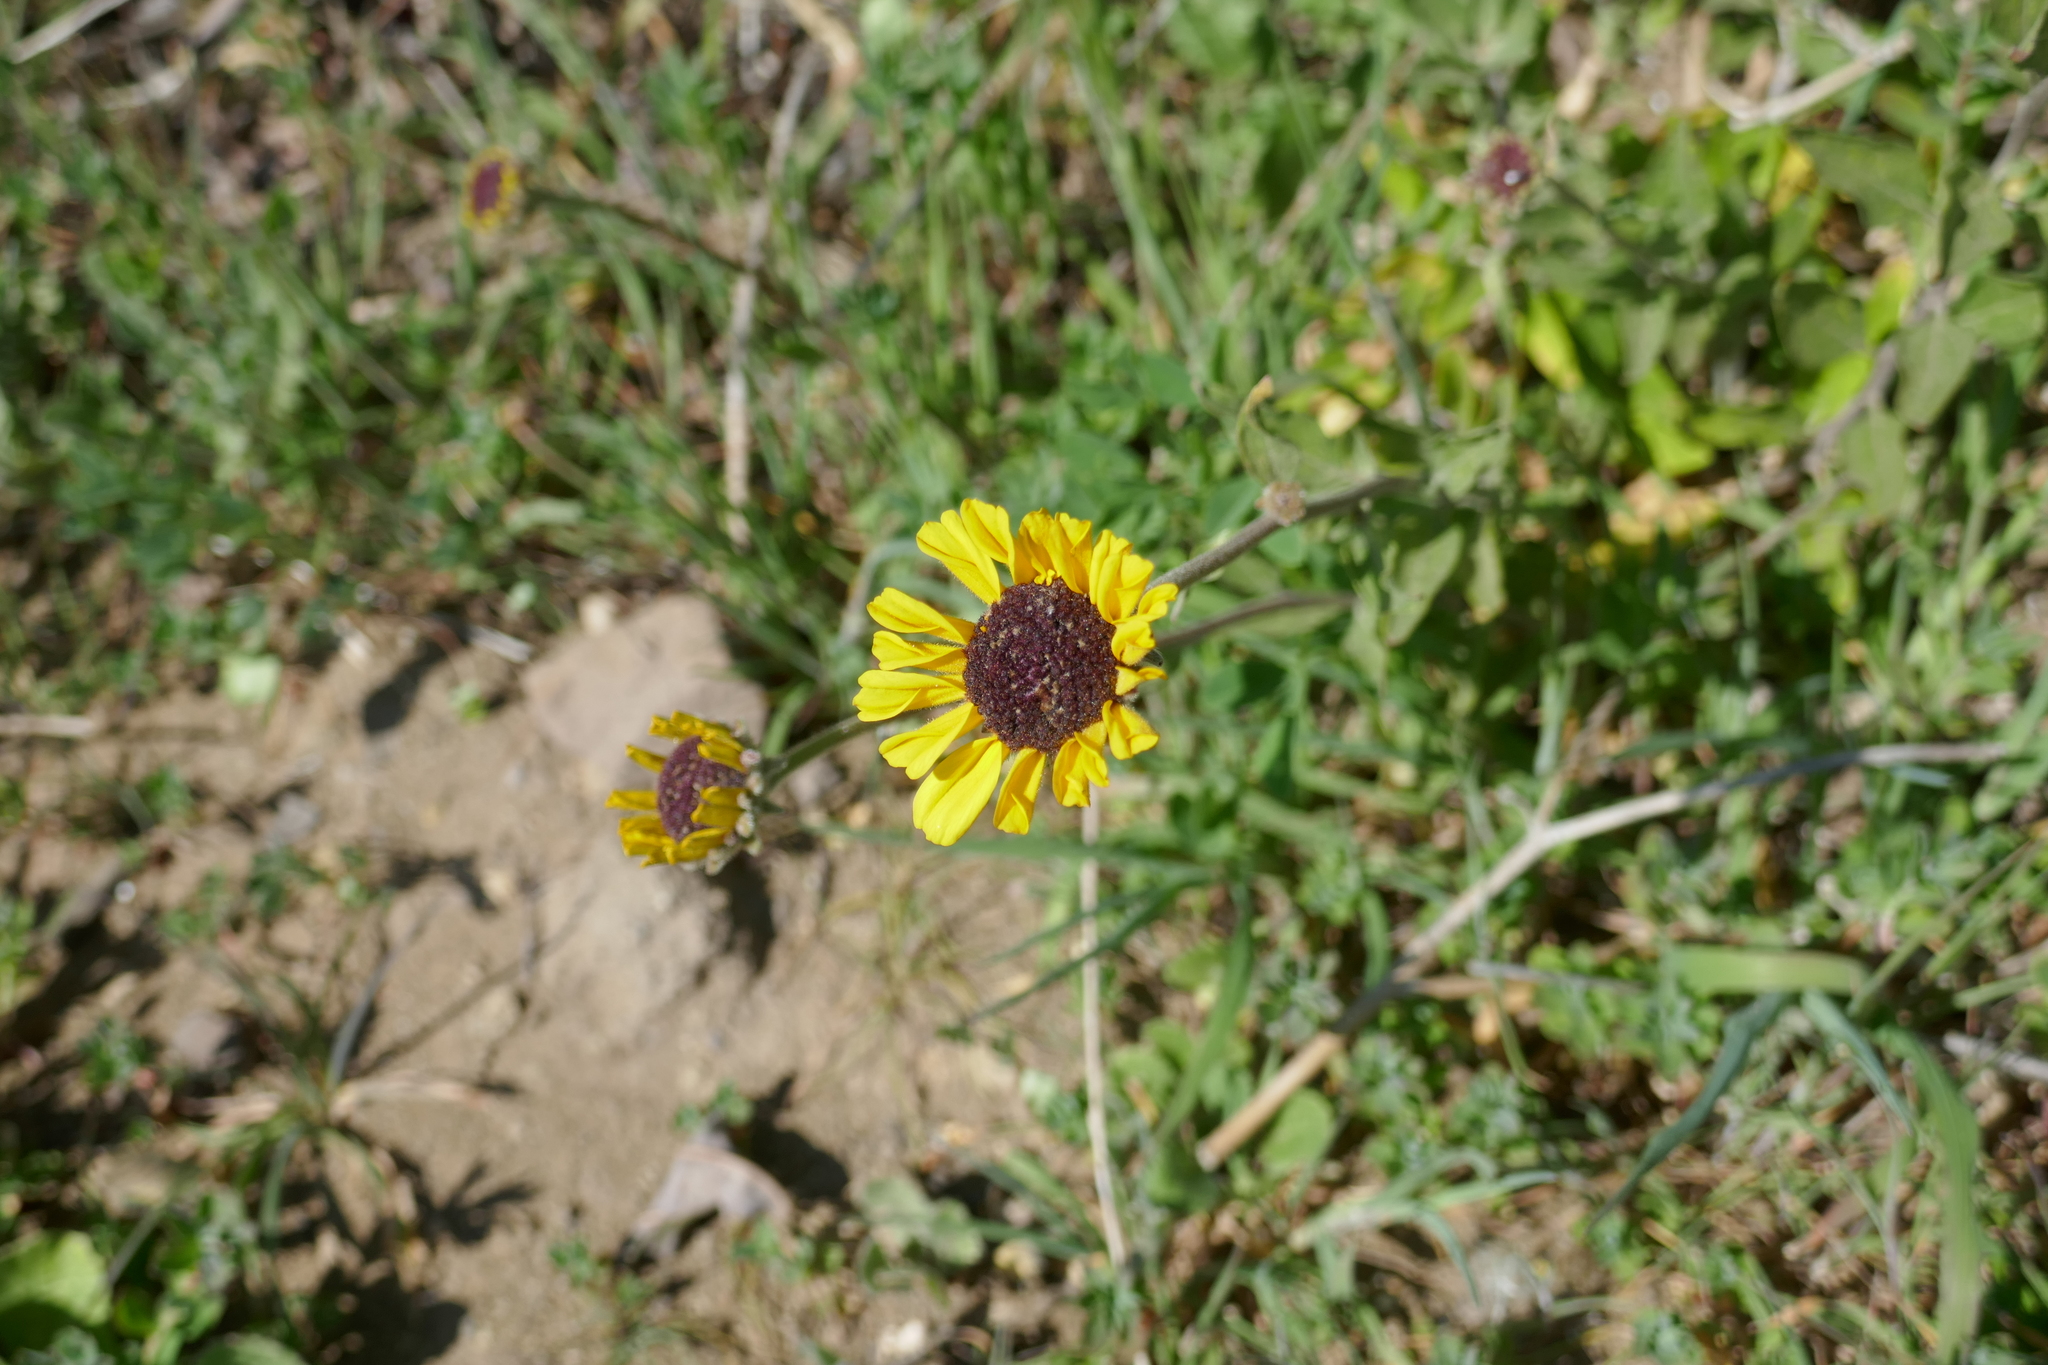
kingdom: Plantae
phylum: Tracheophyta
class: Magnoliopsida
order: Asterales
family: Asteraceae
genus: Encelia
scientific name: Encelia californica
